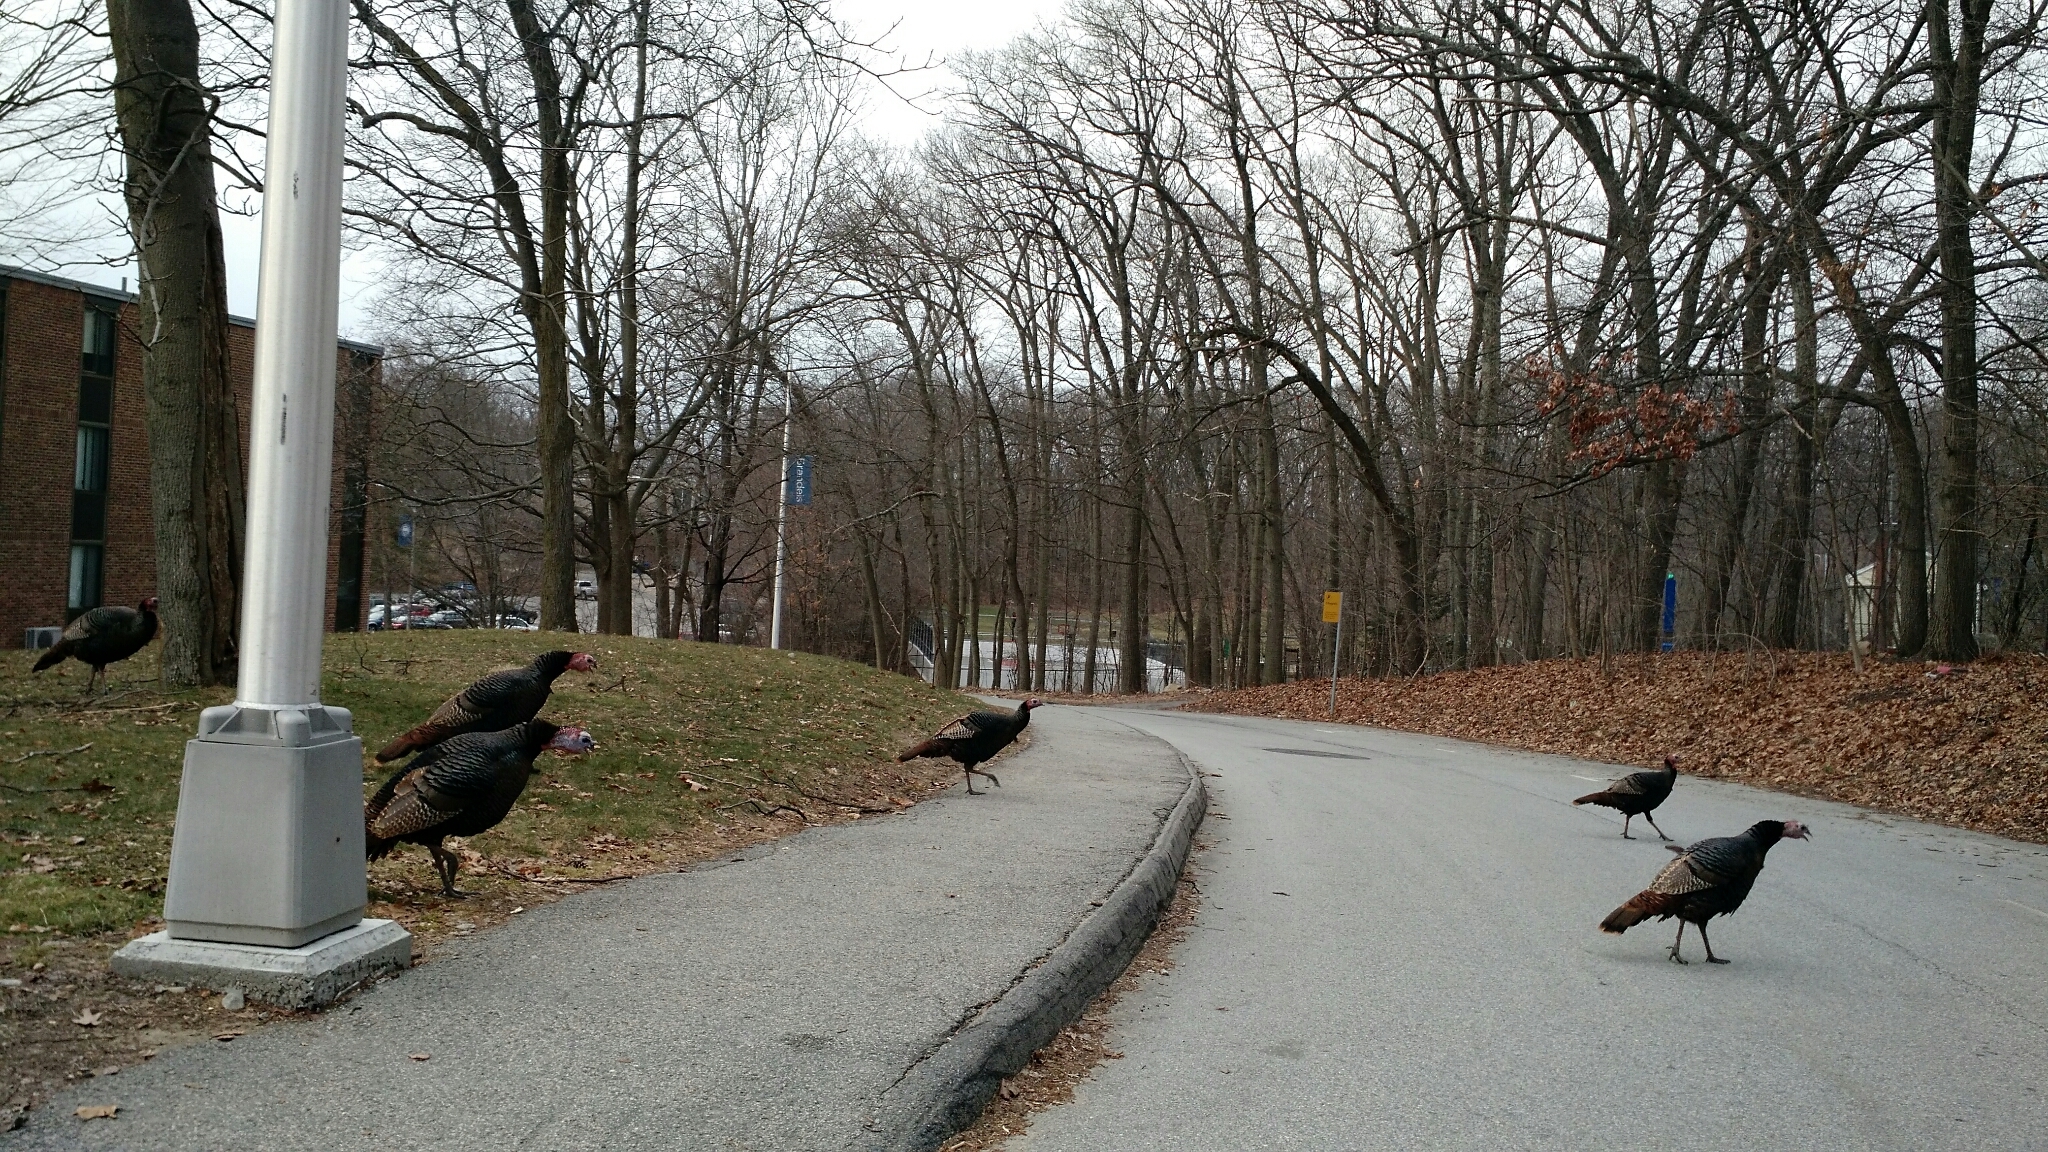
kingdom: Animalia
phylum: Chordata
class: Aves
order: Galliformes
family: Phasianidae
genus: Meleagris
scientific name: Meleagris gallopavo
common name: Wild turkey
